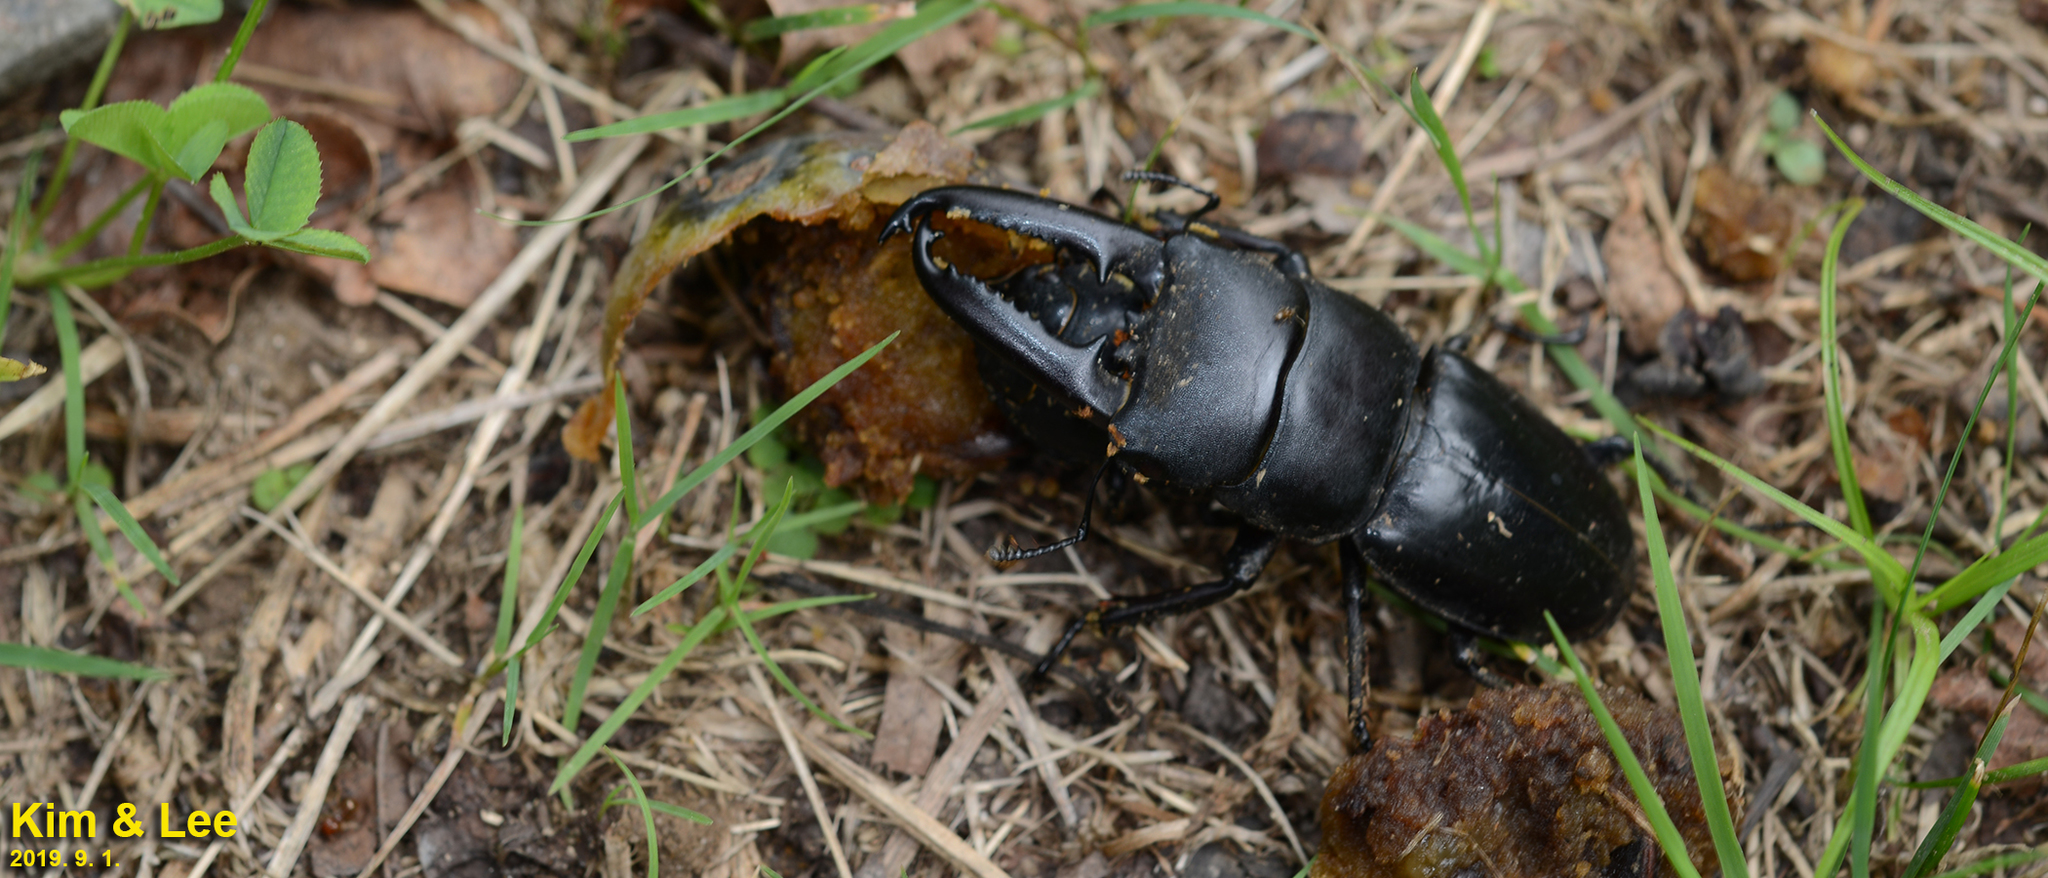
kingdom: Animalia
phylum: Arthropoda
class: Insecta
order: Coleoptera
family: Lucanidae
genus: Serrognathus
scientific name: Serrognathus titanus
